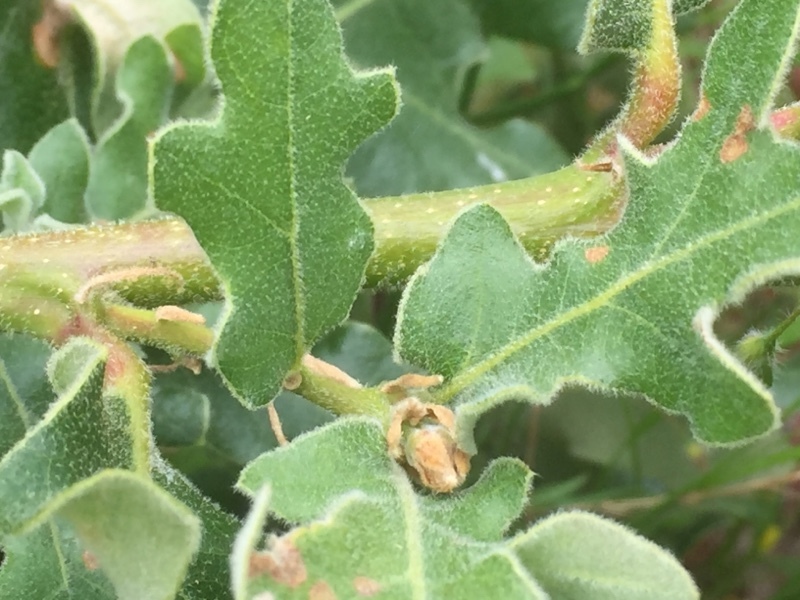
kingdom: Plantae
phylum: Tracheophyta
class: Magnoliopsida
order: Fagales
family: Fagaceae
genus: Quercus
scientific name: Quercus pyrenaica
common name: Pyrenean oak
